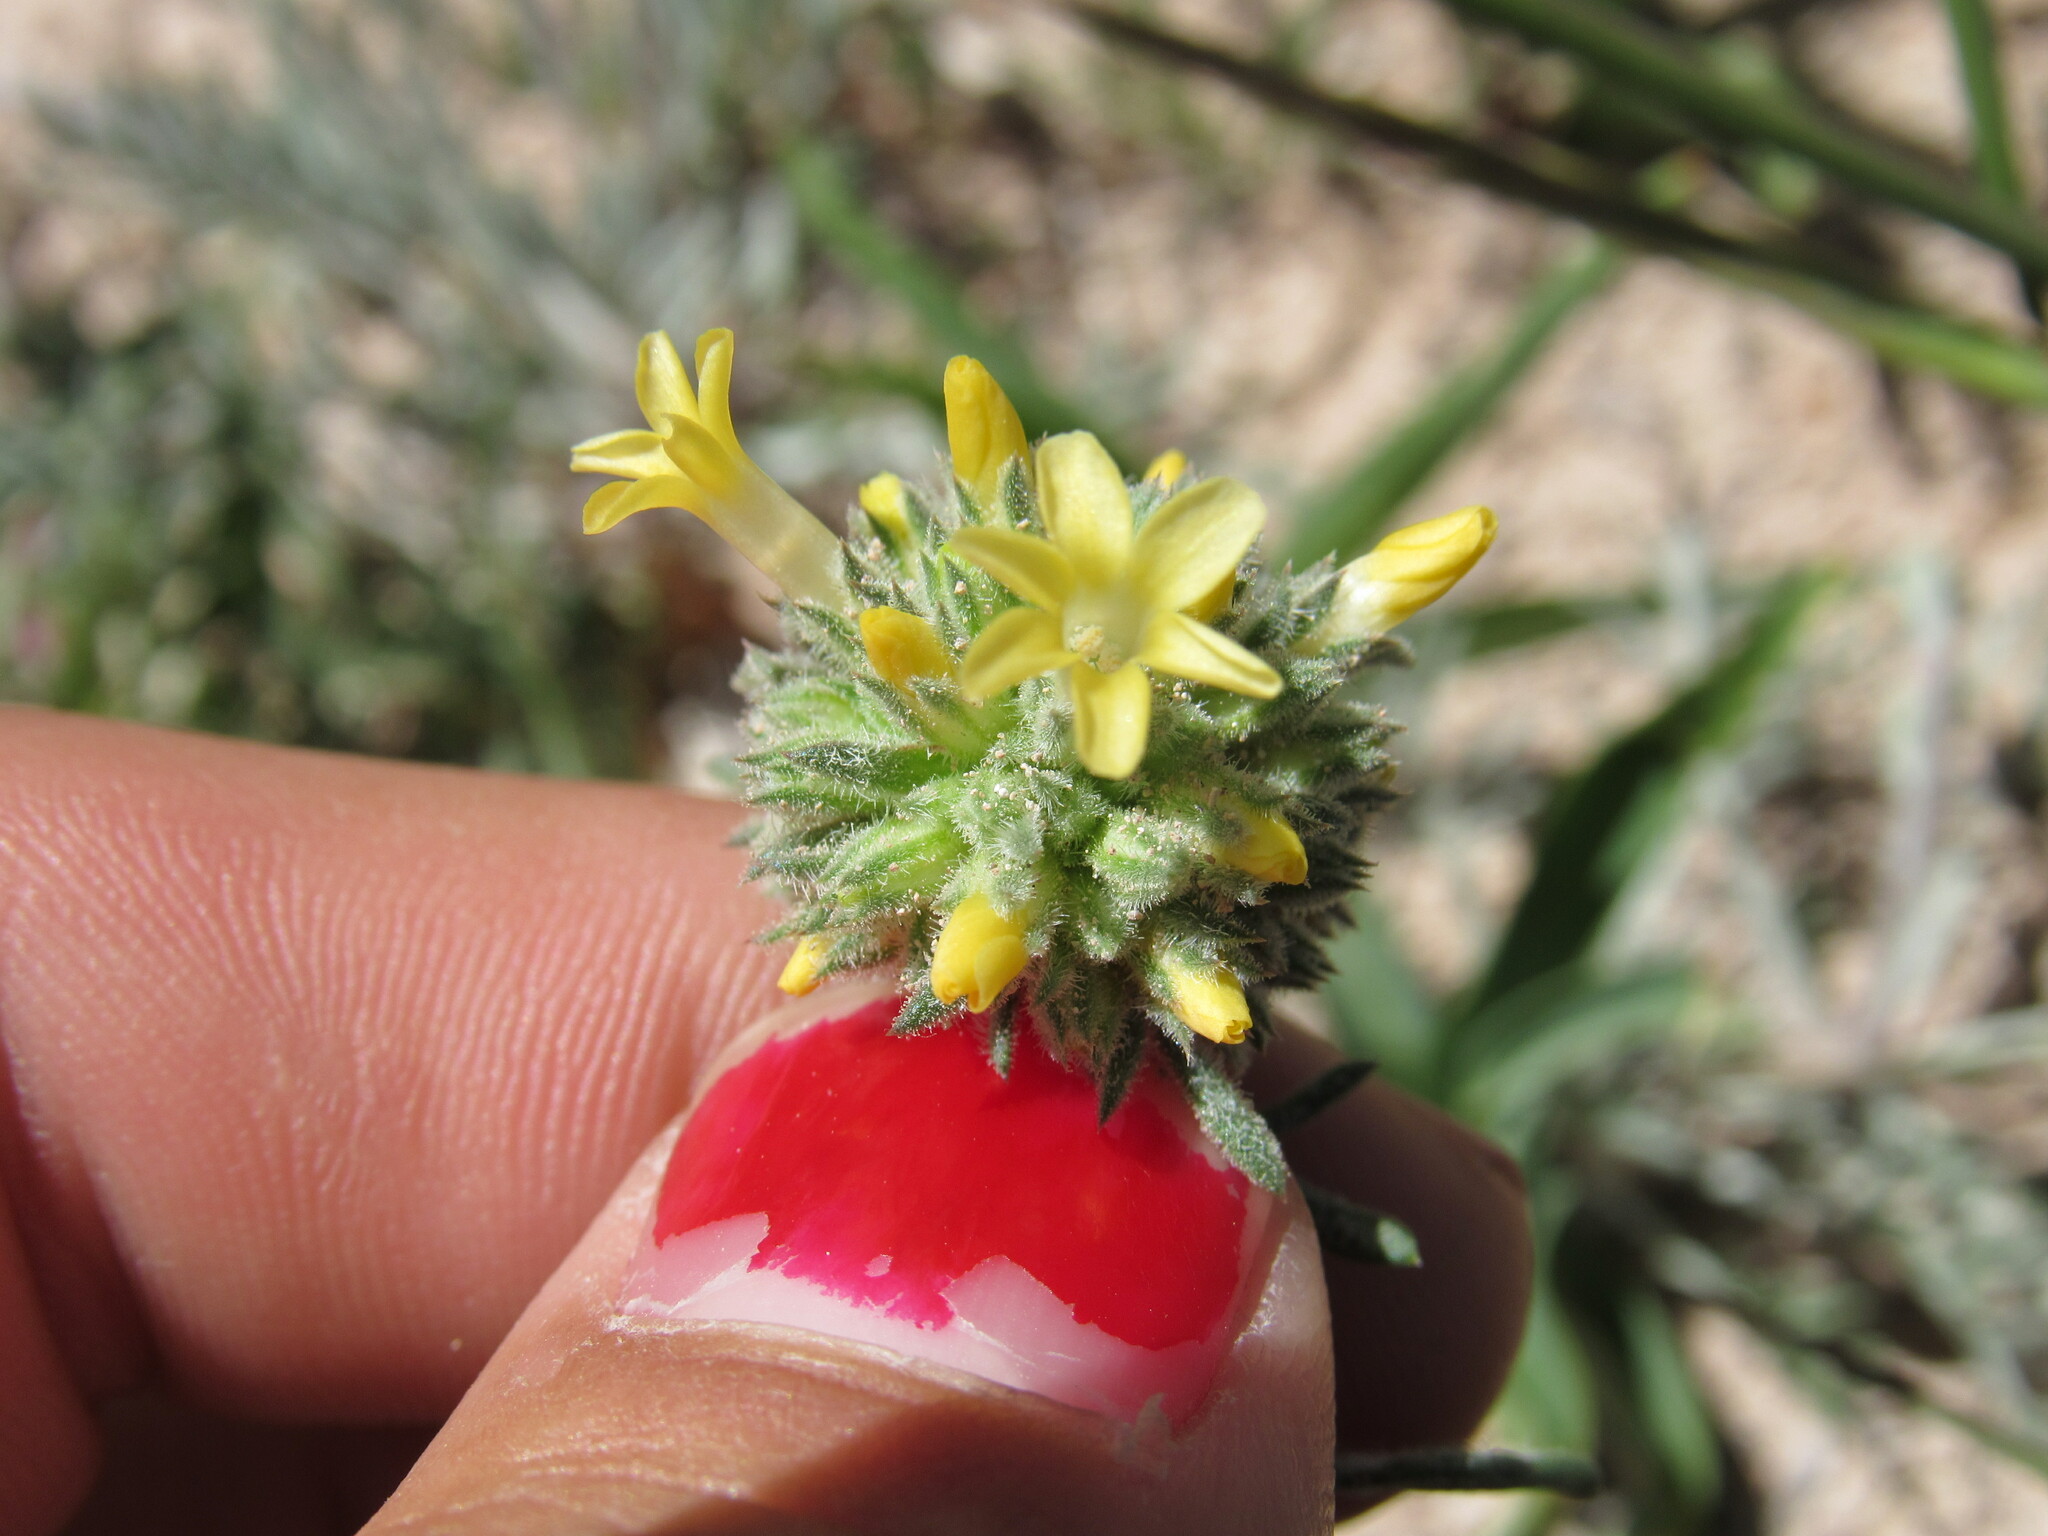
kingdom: Plantae
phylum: Tracheophyta
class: Magnoliopsida
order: Ericales
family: Polemoniaceae
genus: Ipomopsis
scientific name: Ipomopsis spicata
